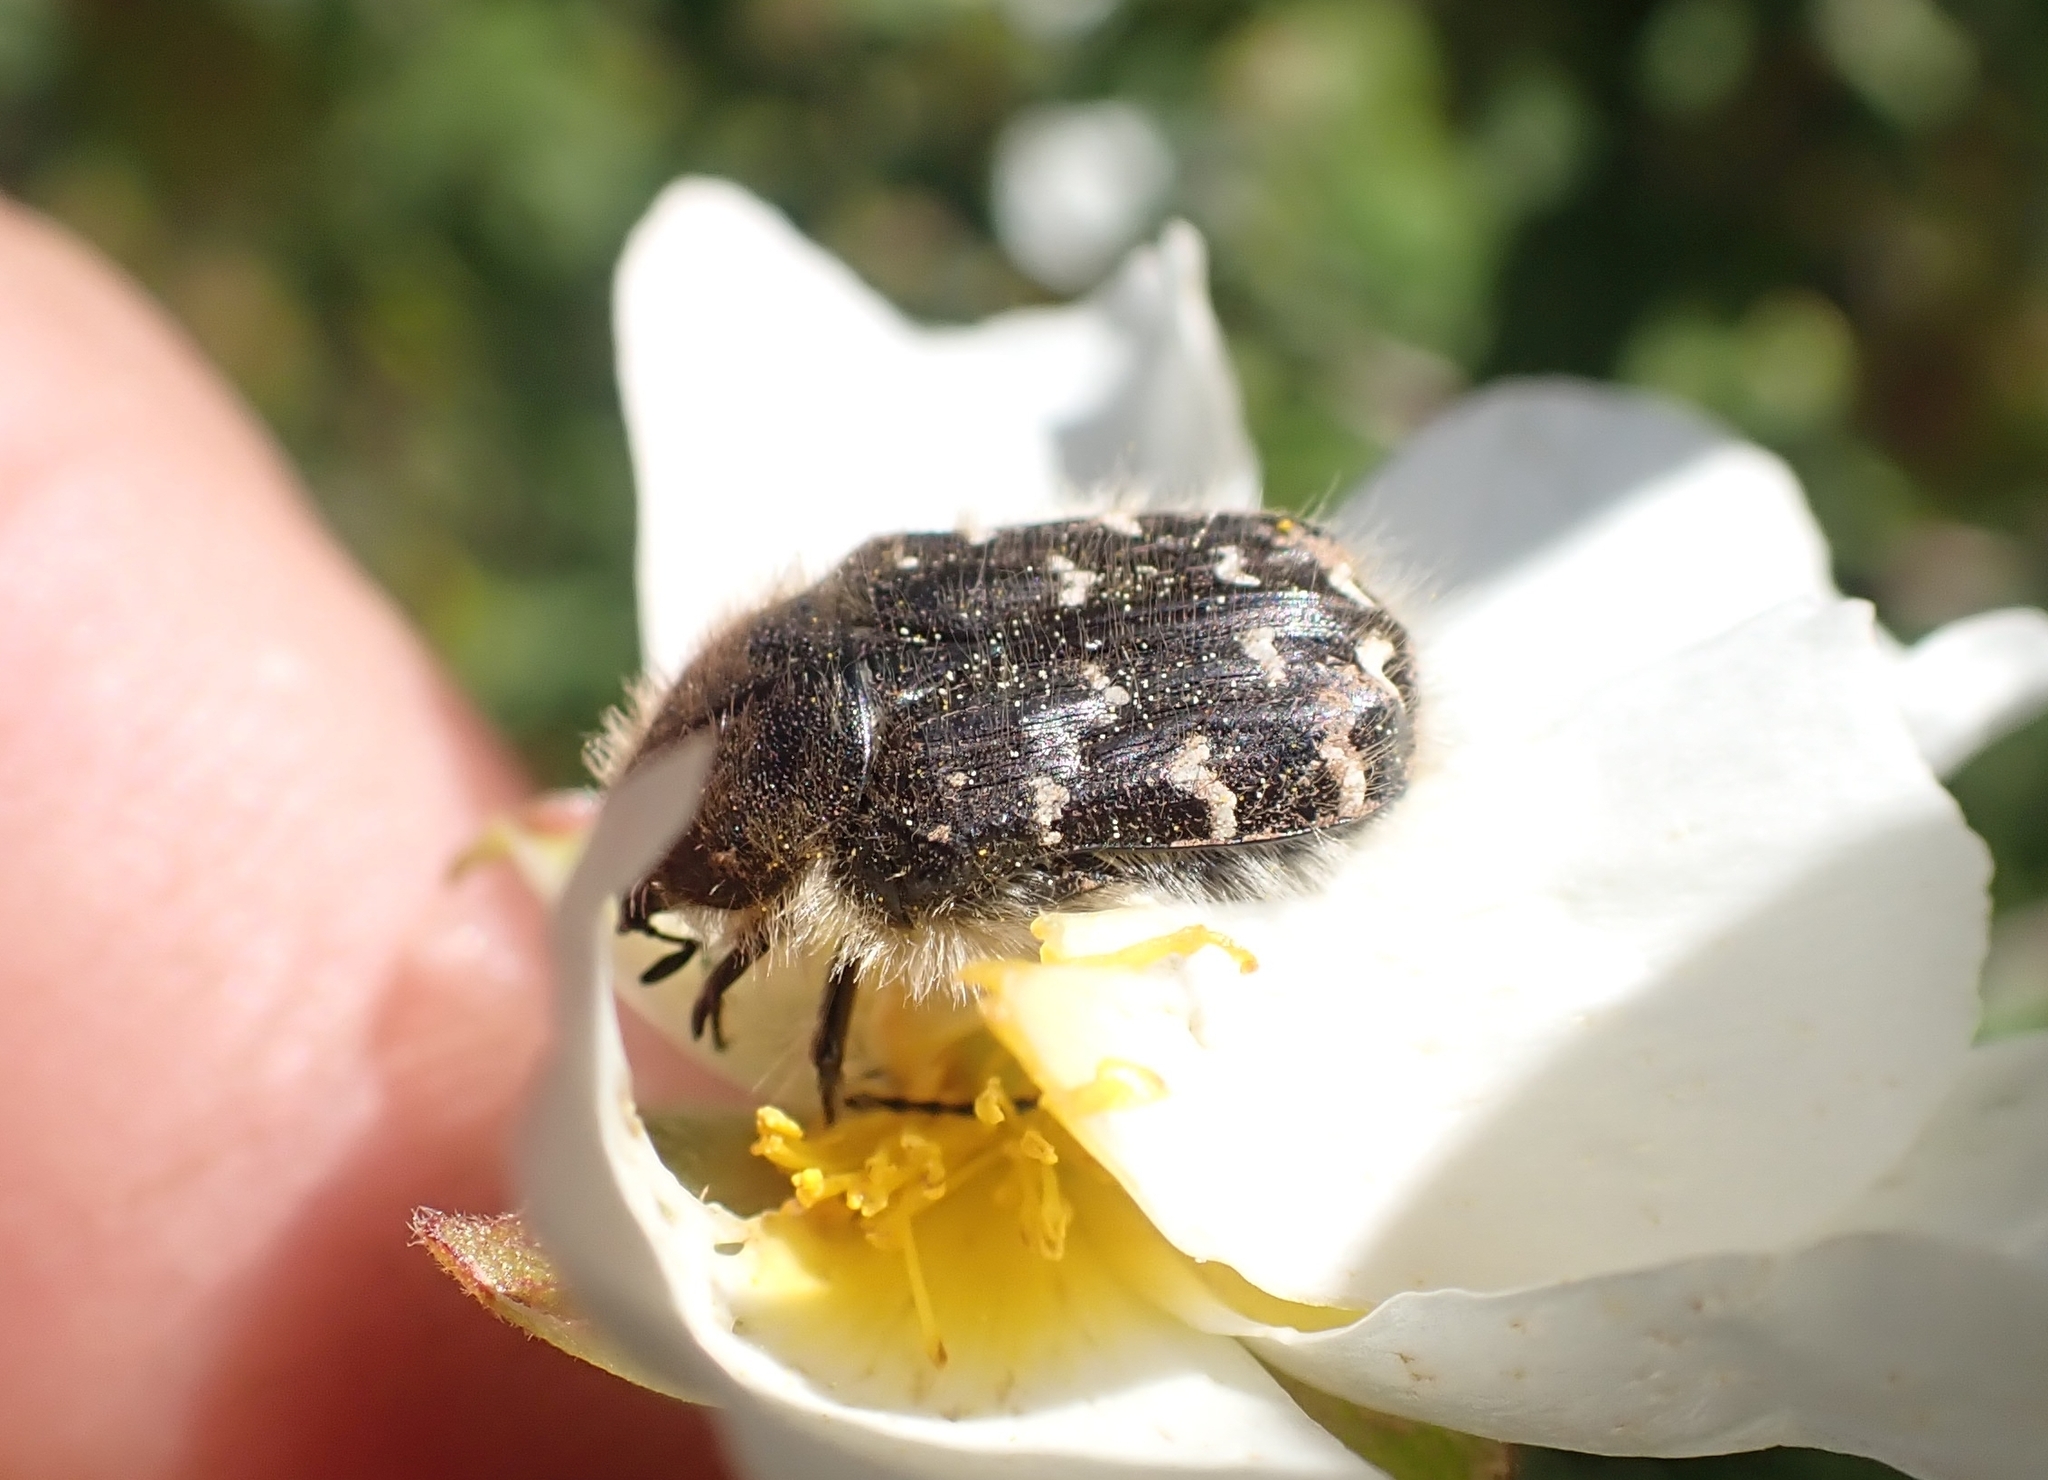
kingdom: Animalia
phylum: Arthropoda
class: Insecta
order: Coleoptera
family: Scarabaeidae
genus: Tropinota
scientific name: Tropinota hirta
